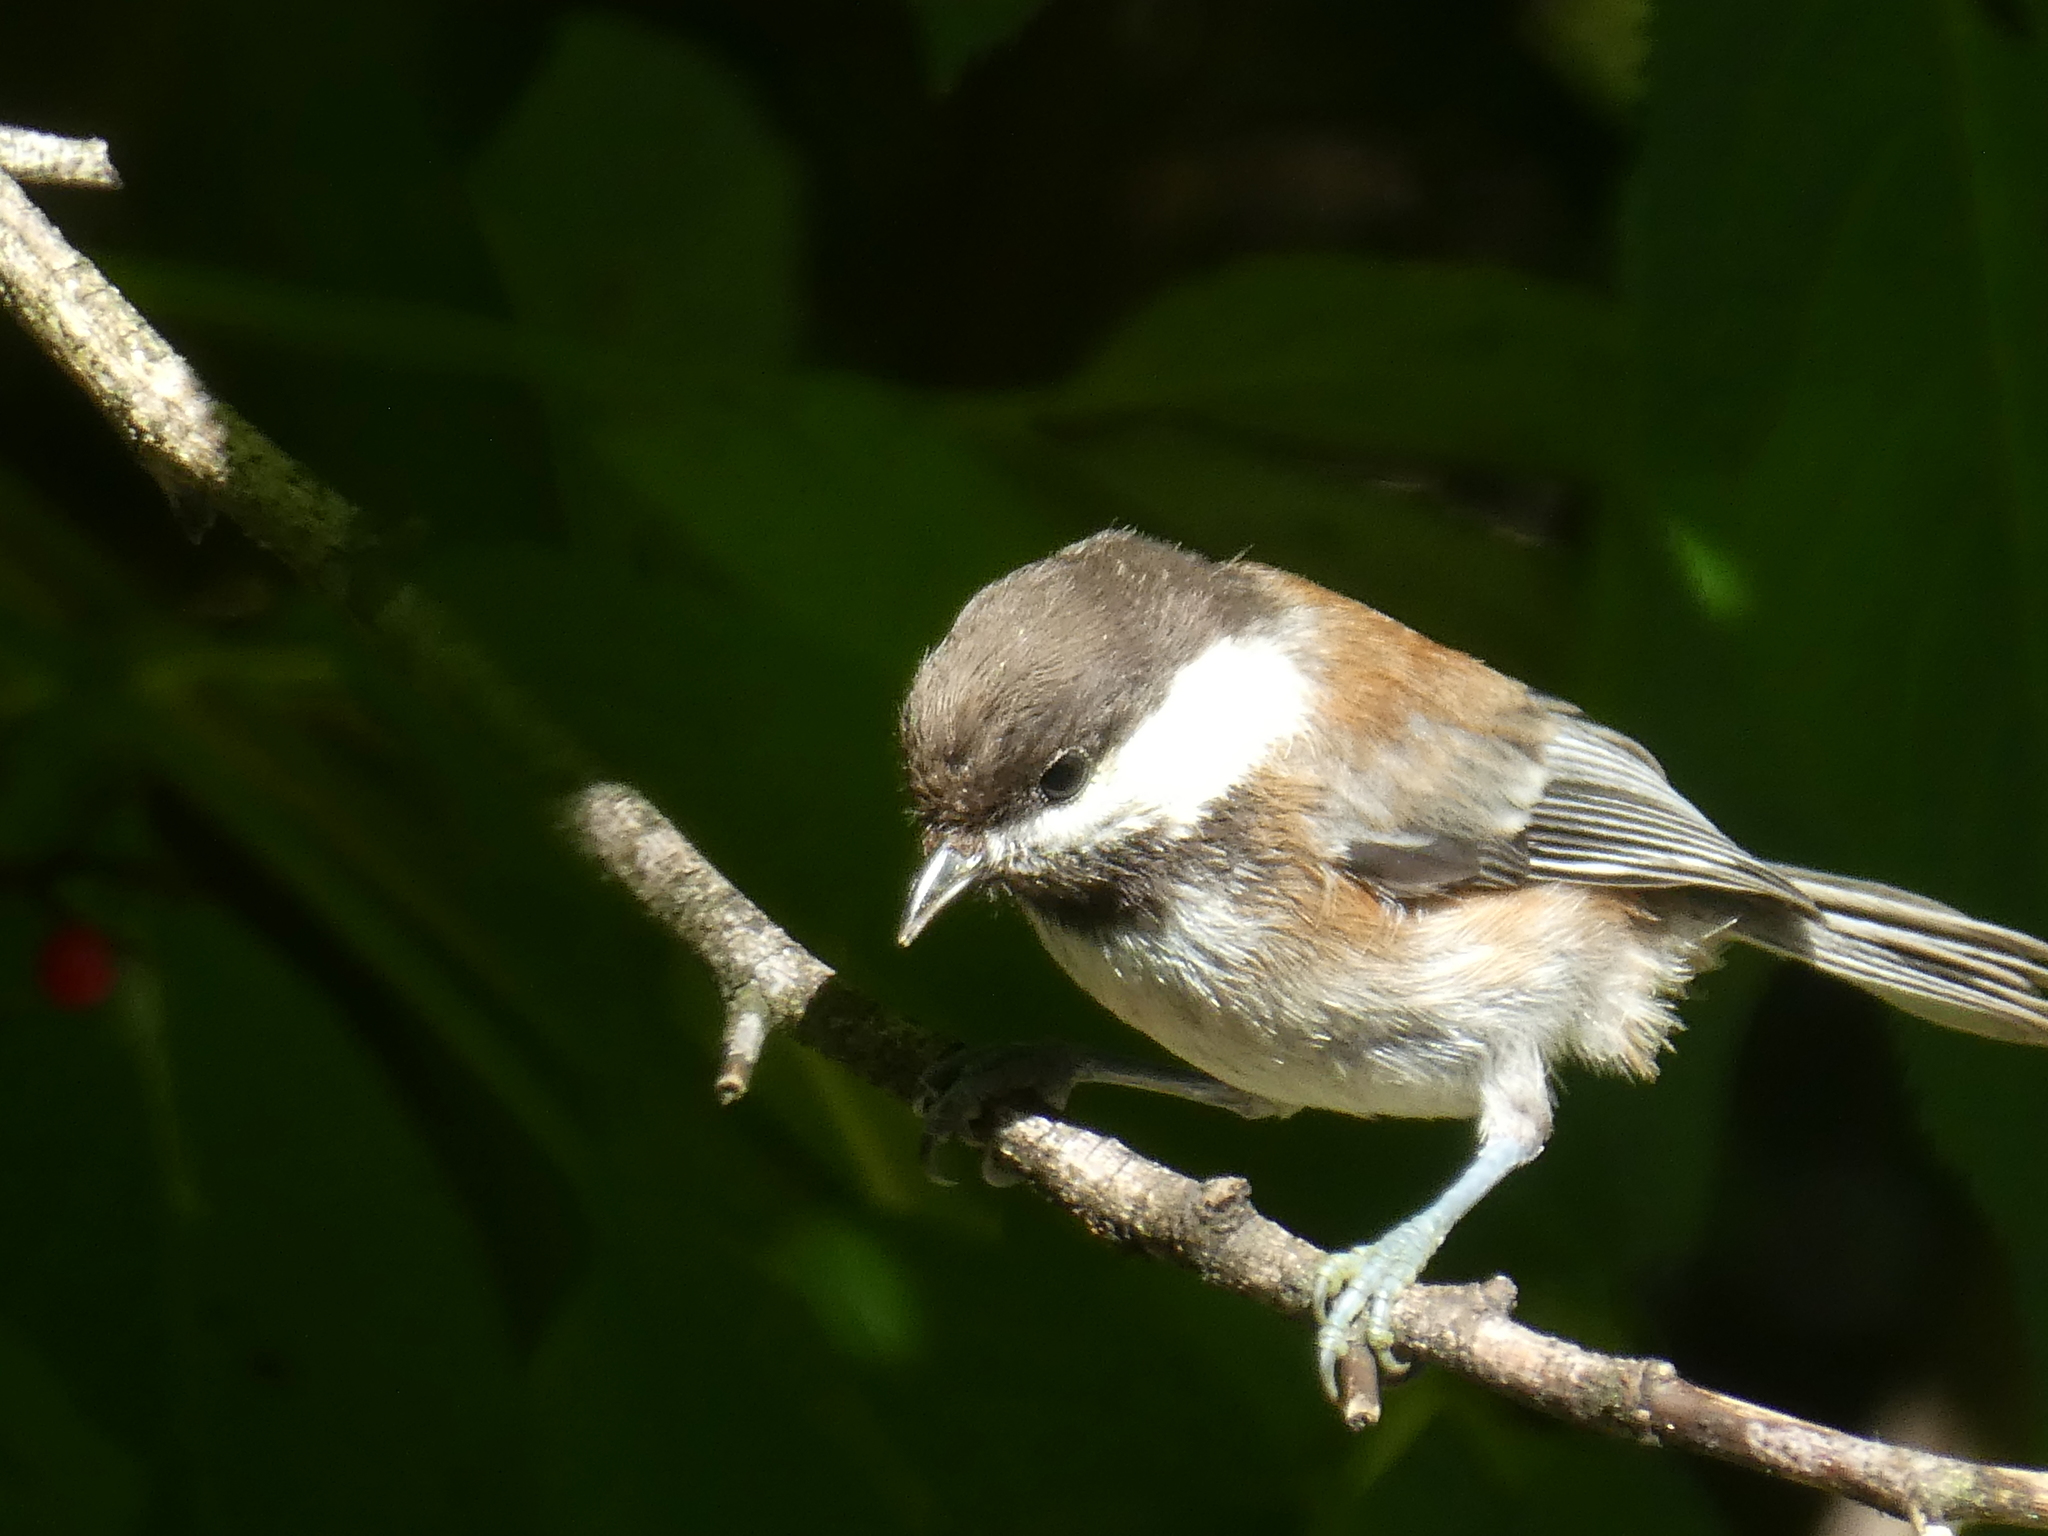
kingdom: Animalia
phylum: Chordata
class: Aves
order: Passeriformes
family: Paridae
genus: Poecile
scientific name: Poecile rufescens
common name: Chestnut-backed chickadee
